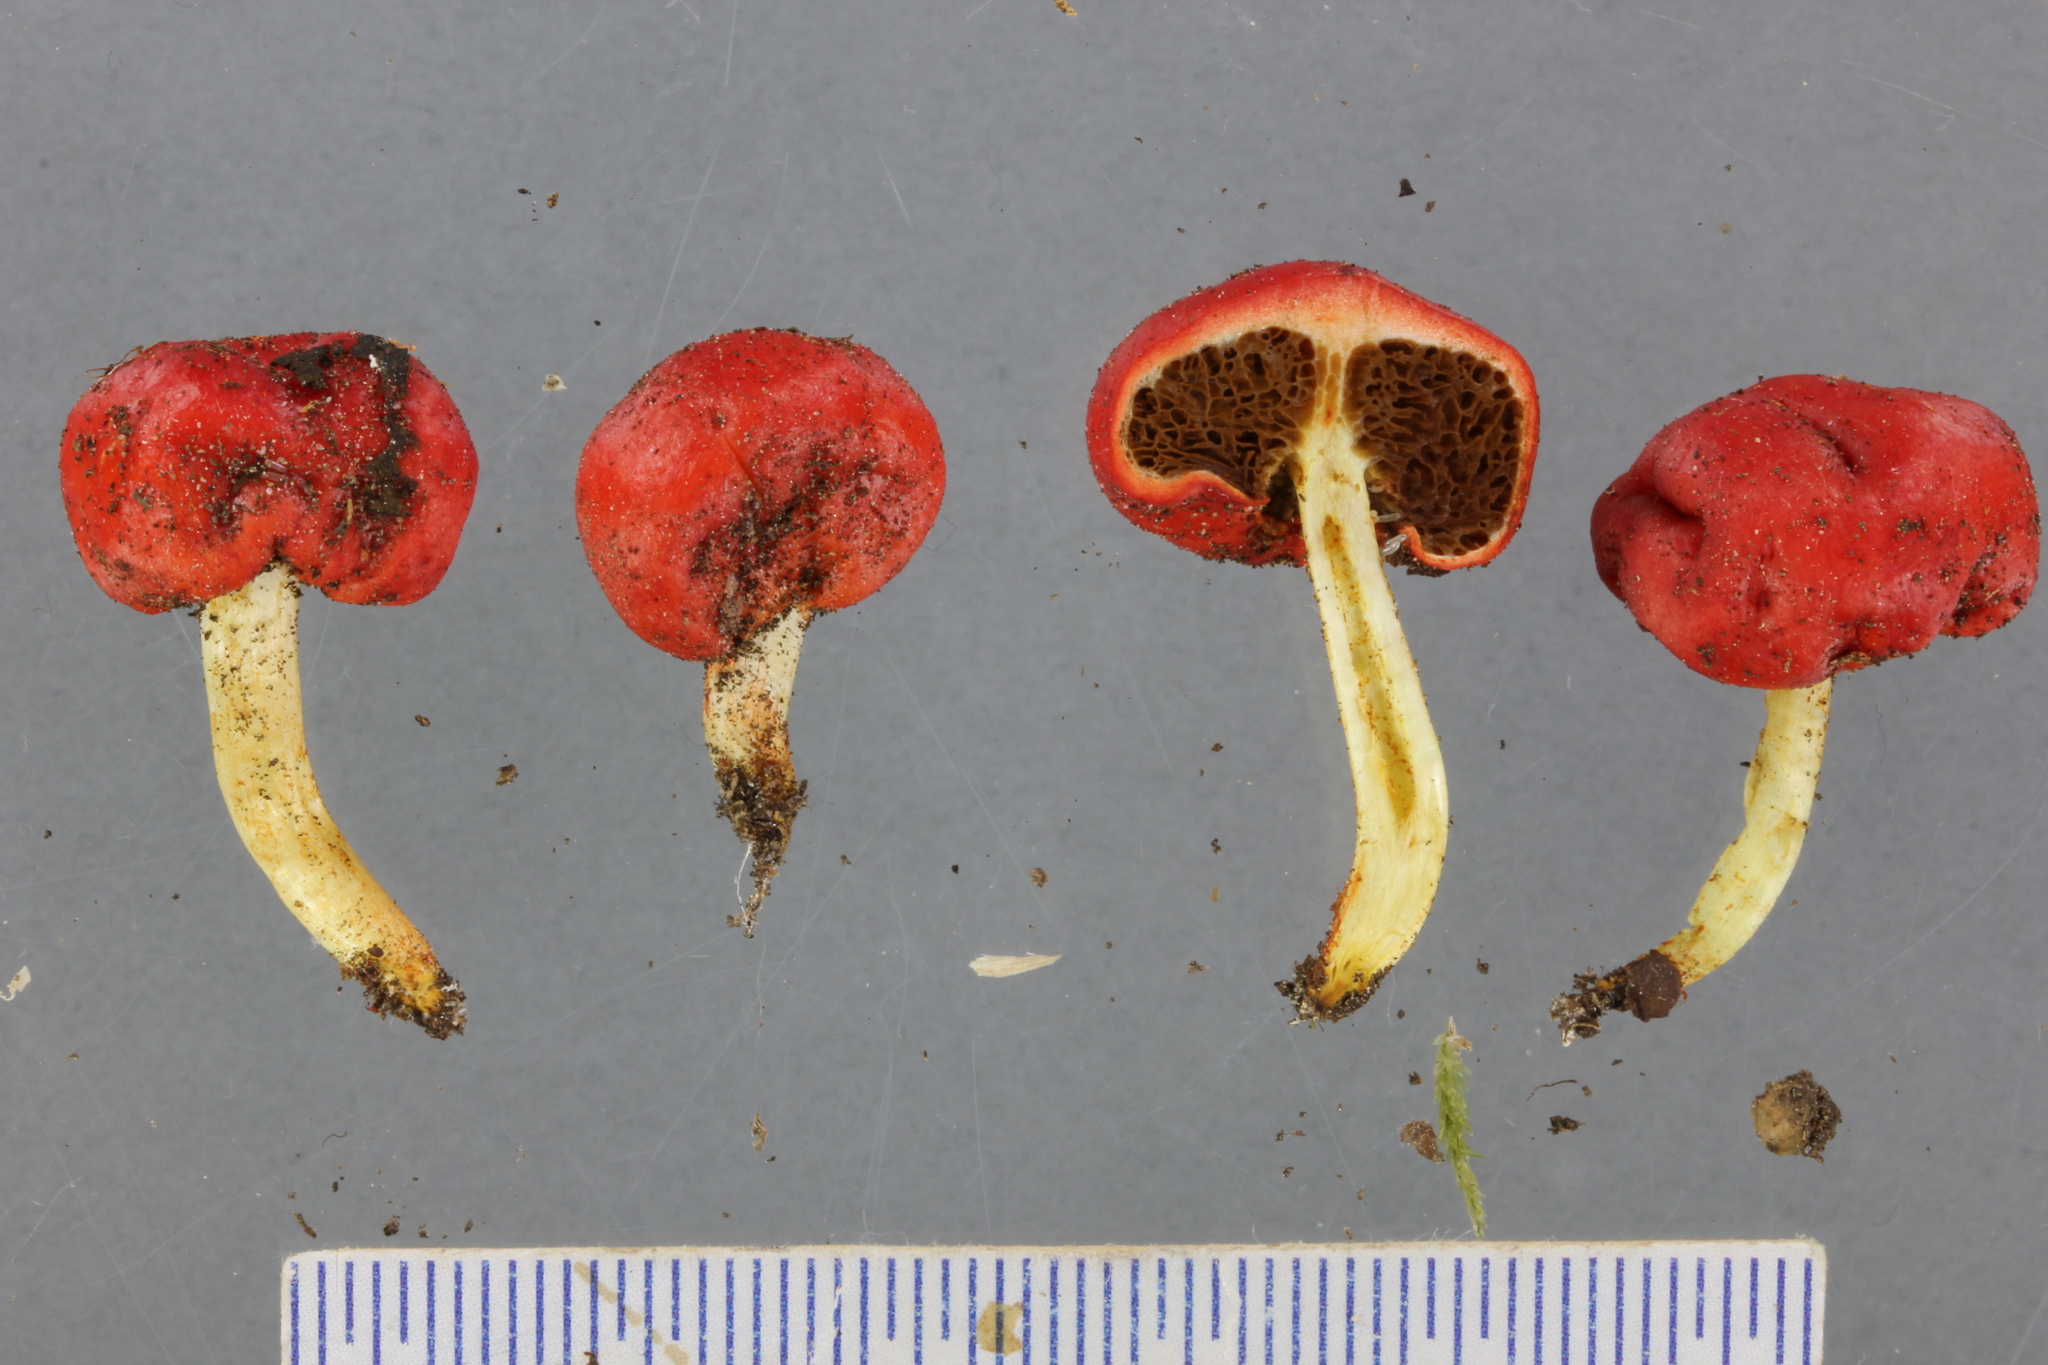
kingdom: Fungi
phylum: Basidiomycota
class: Agaricomycetes
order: Agaricales
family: Strophariaceae
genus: Leratiomyces
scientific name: Leratiomyces erythrocephalus
